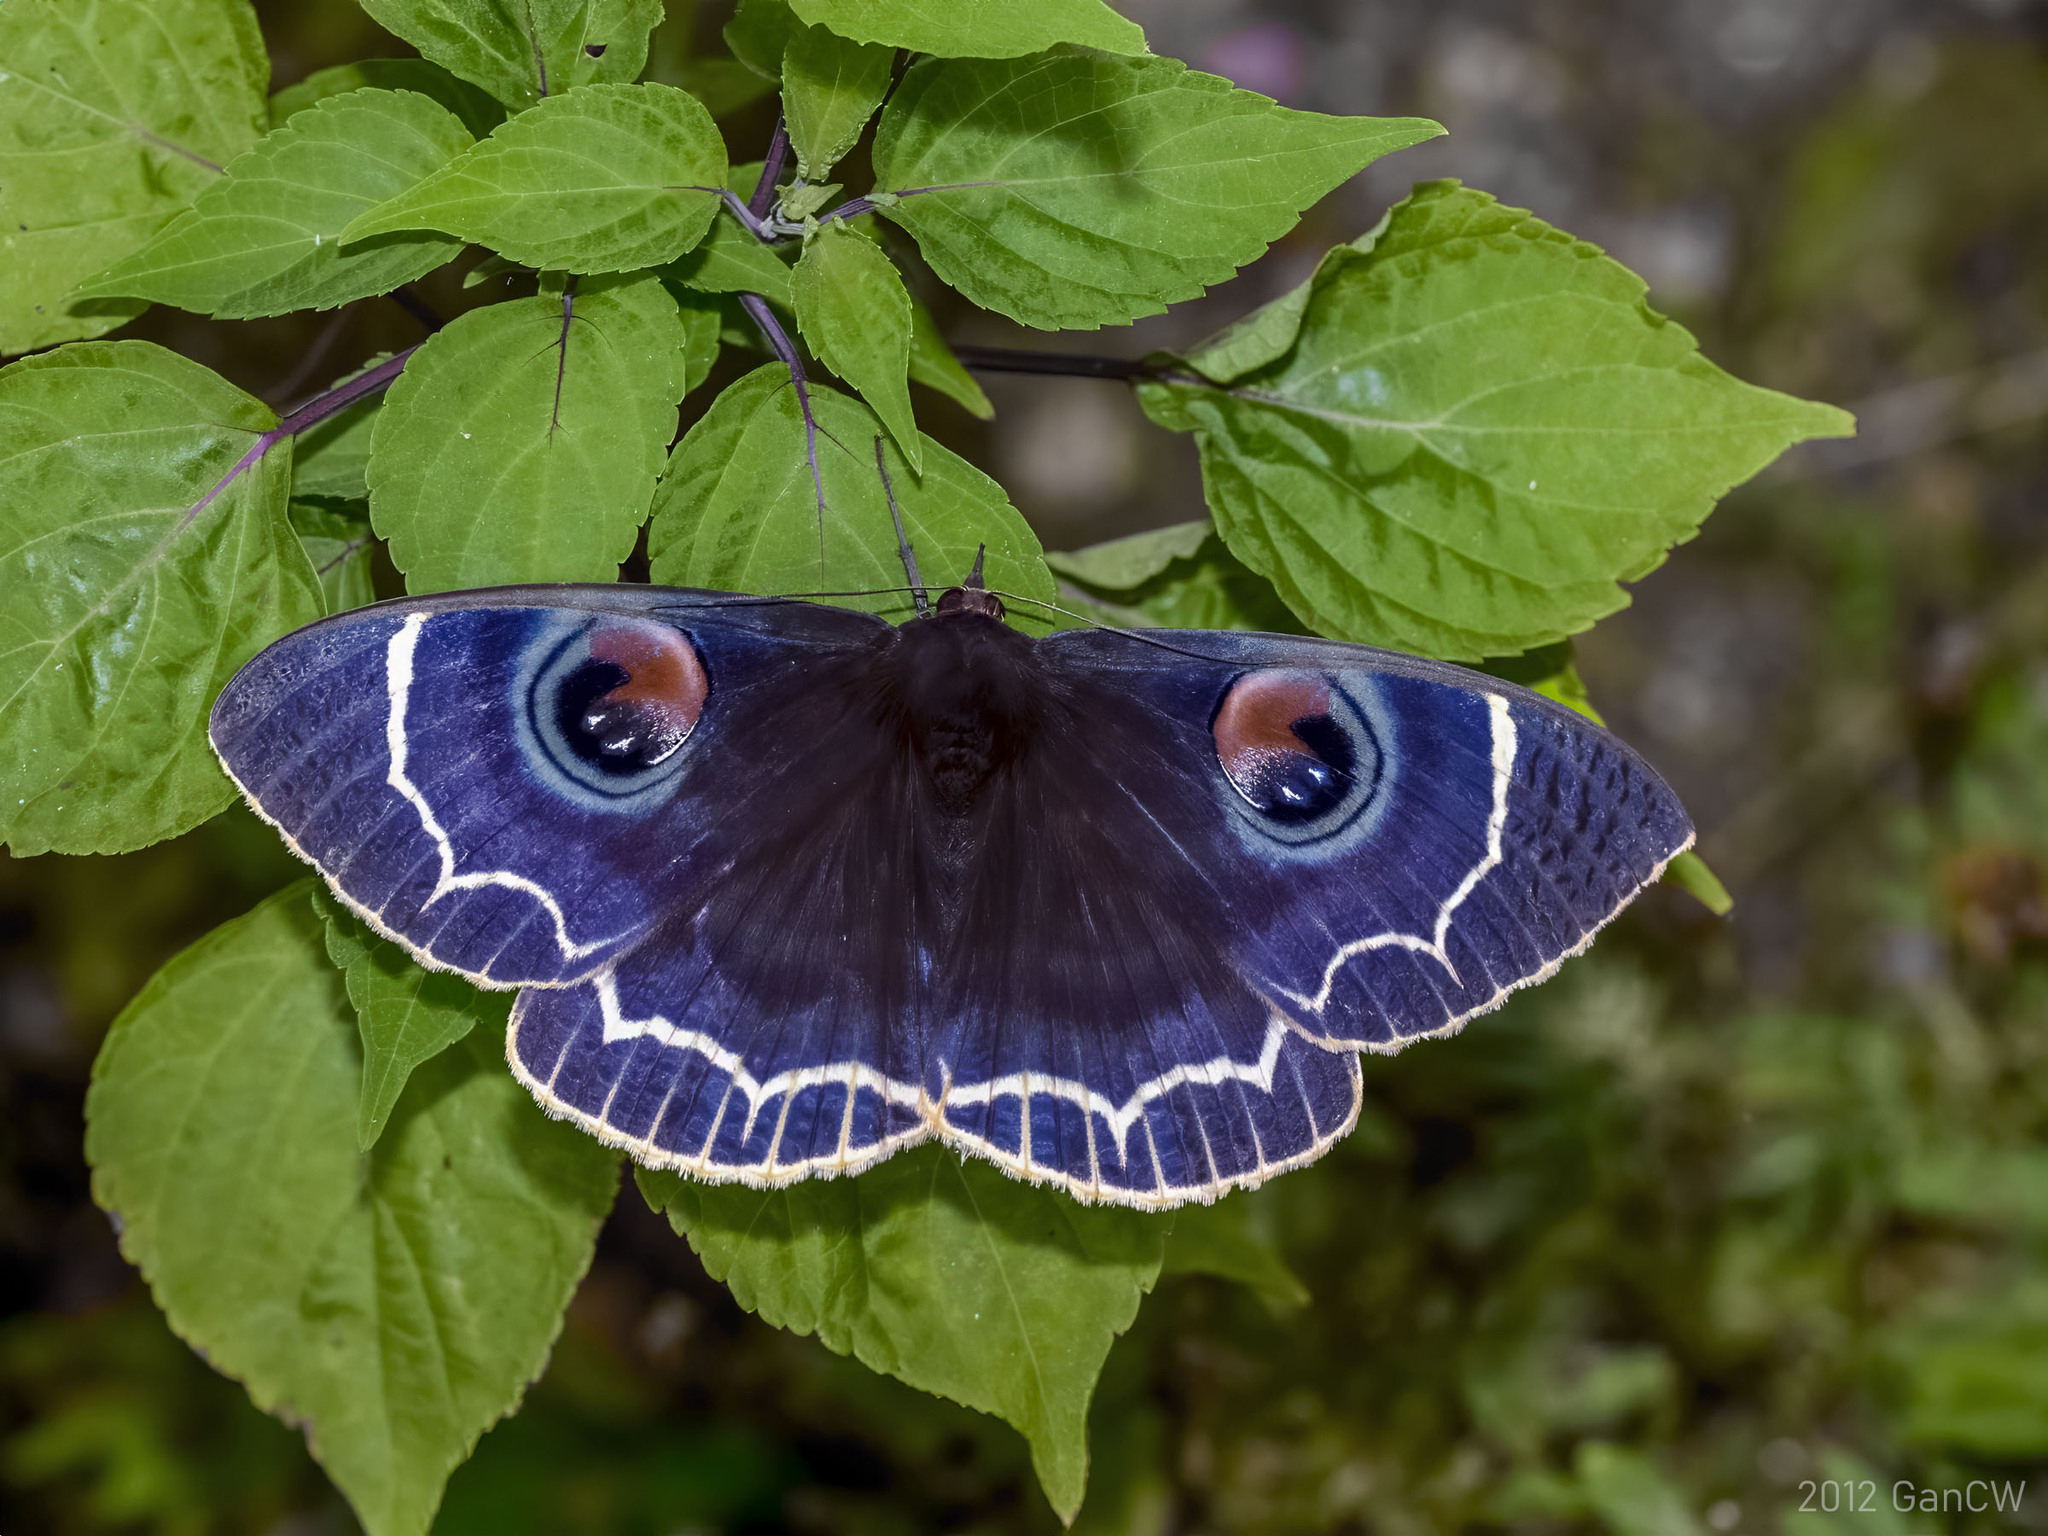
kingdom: Animalia
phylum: Arthropoda
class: Insecta
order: Lepidoptera
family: Erebidae
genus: Erebus
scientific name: Erebus albicinctus
